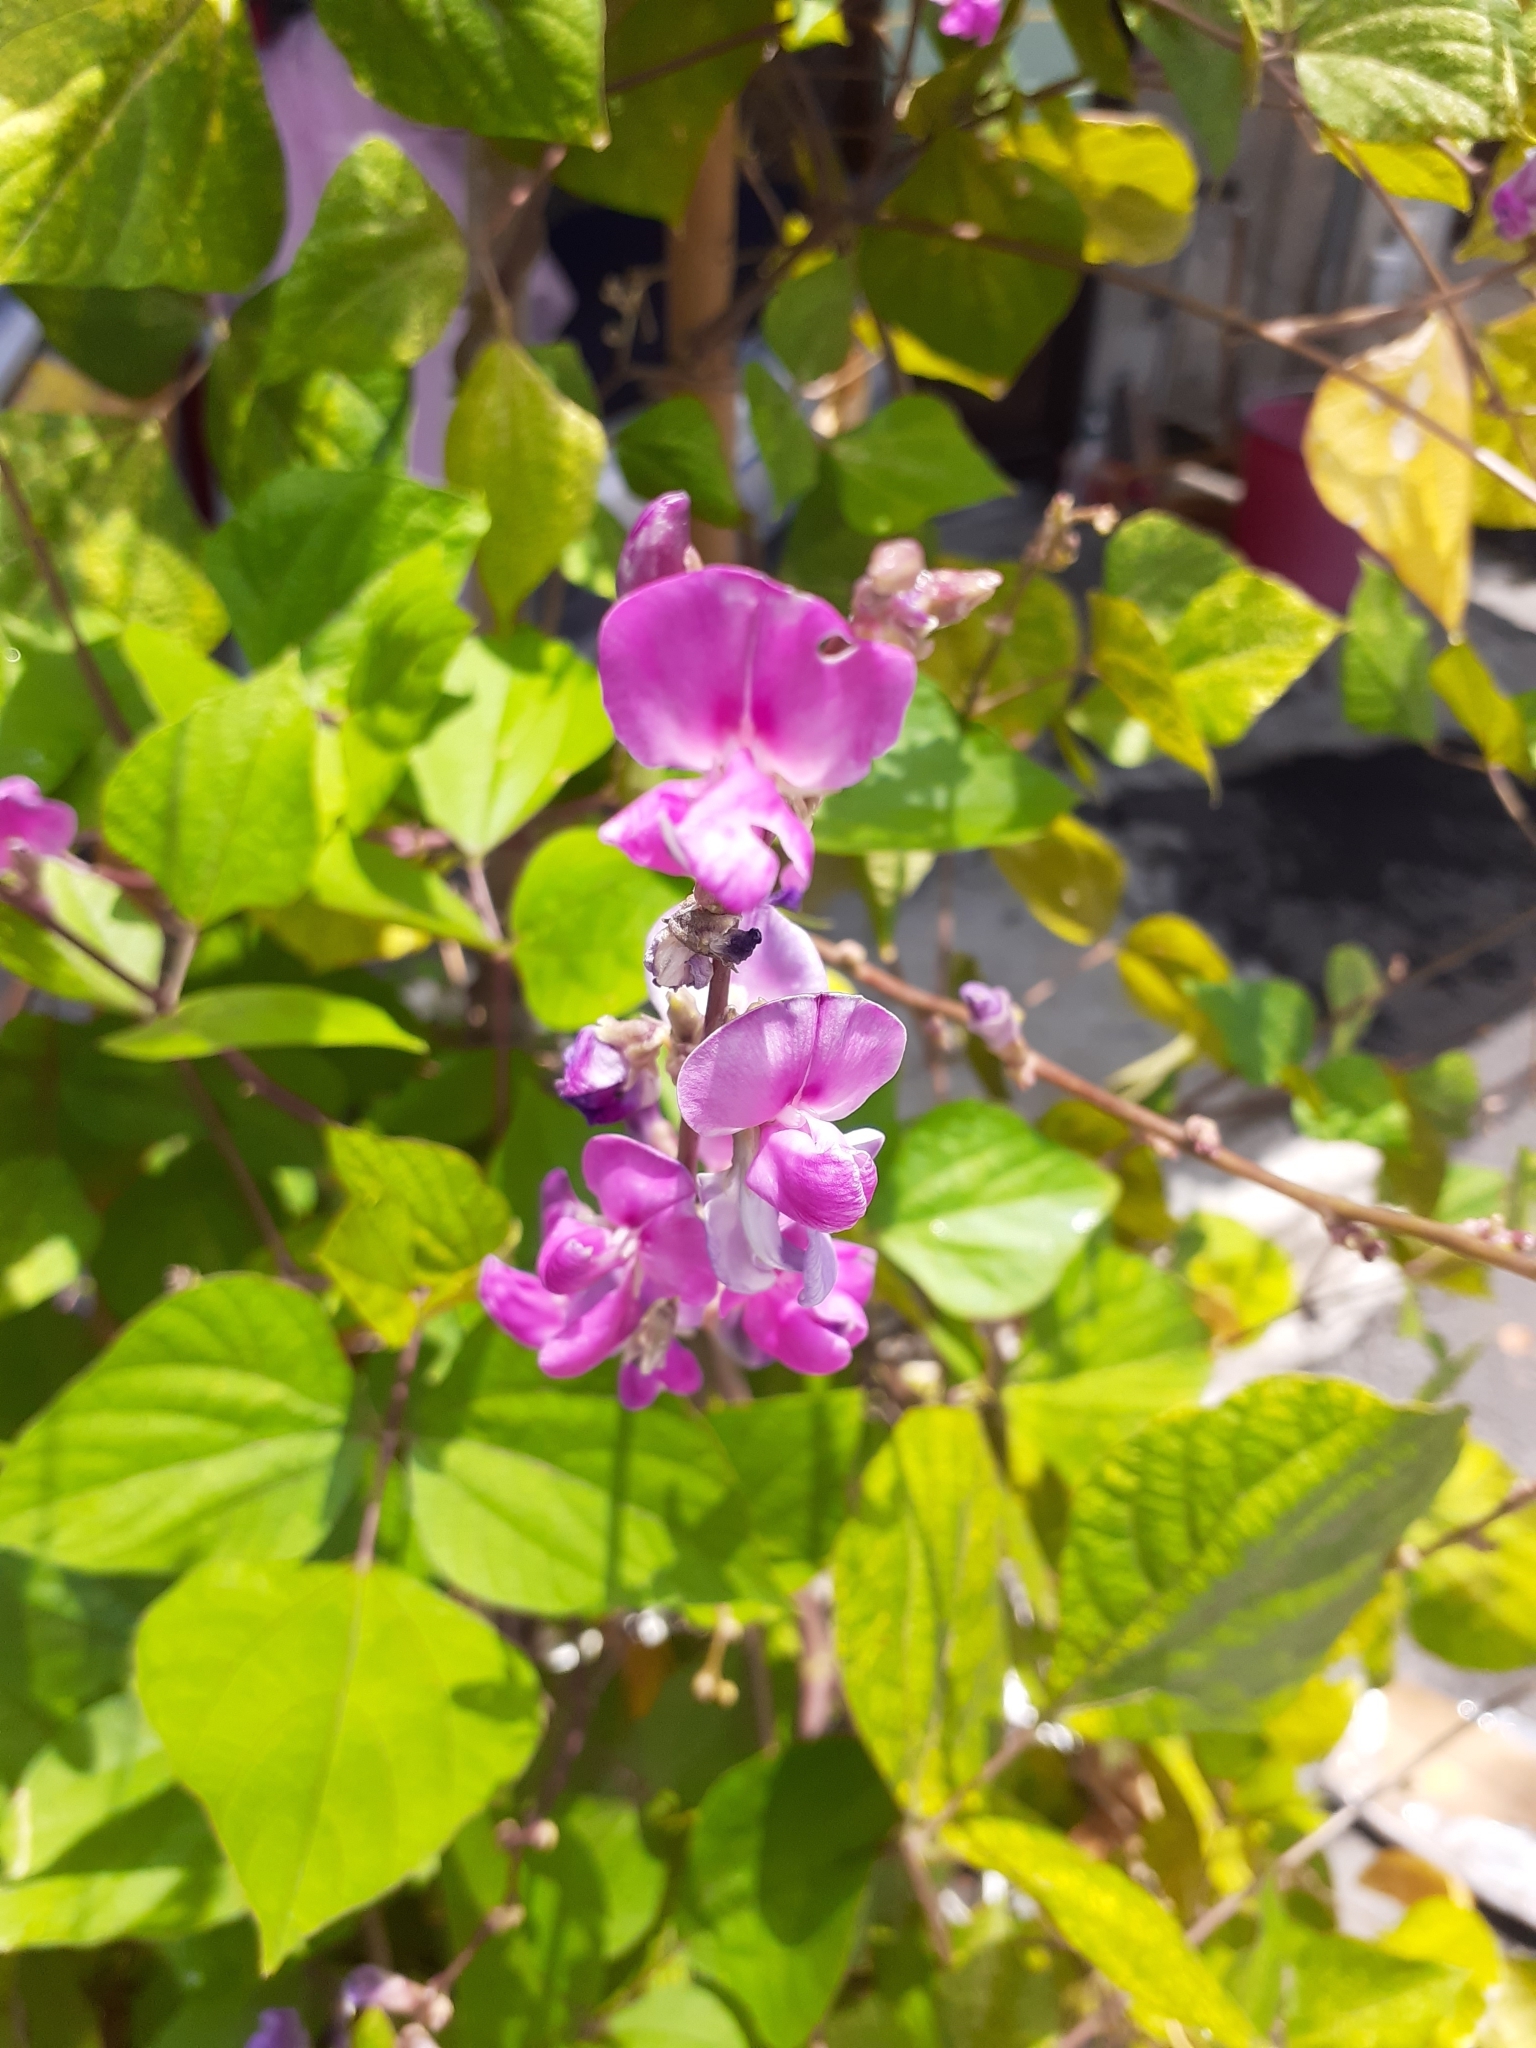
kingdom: Plantae
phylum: Tracheophyta
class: Magnoliopsida
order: Fabales
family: Fabaceae
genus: Lablab
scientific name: Lablab purpureus
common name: Lablab-bean
